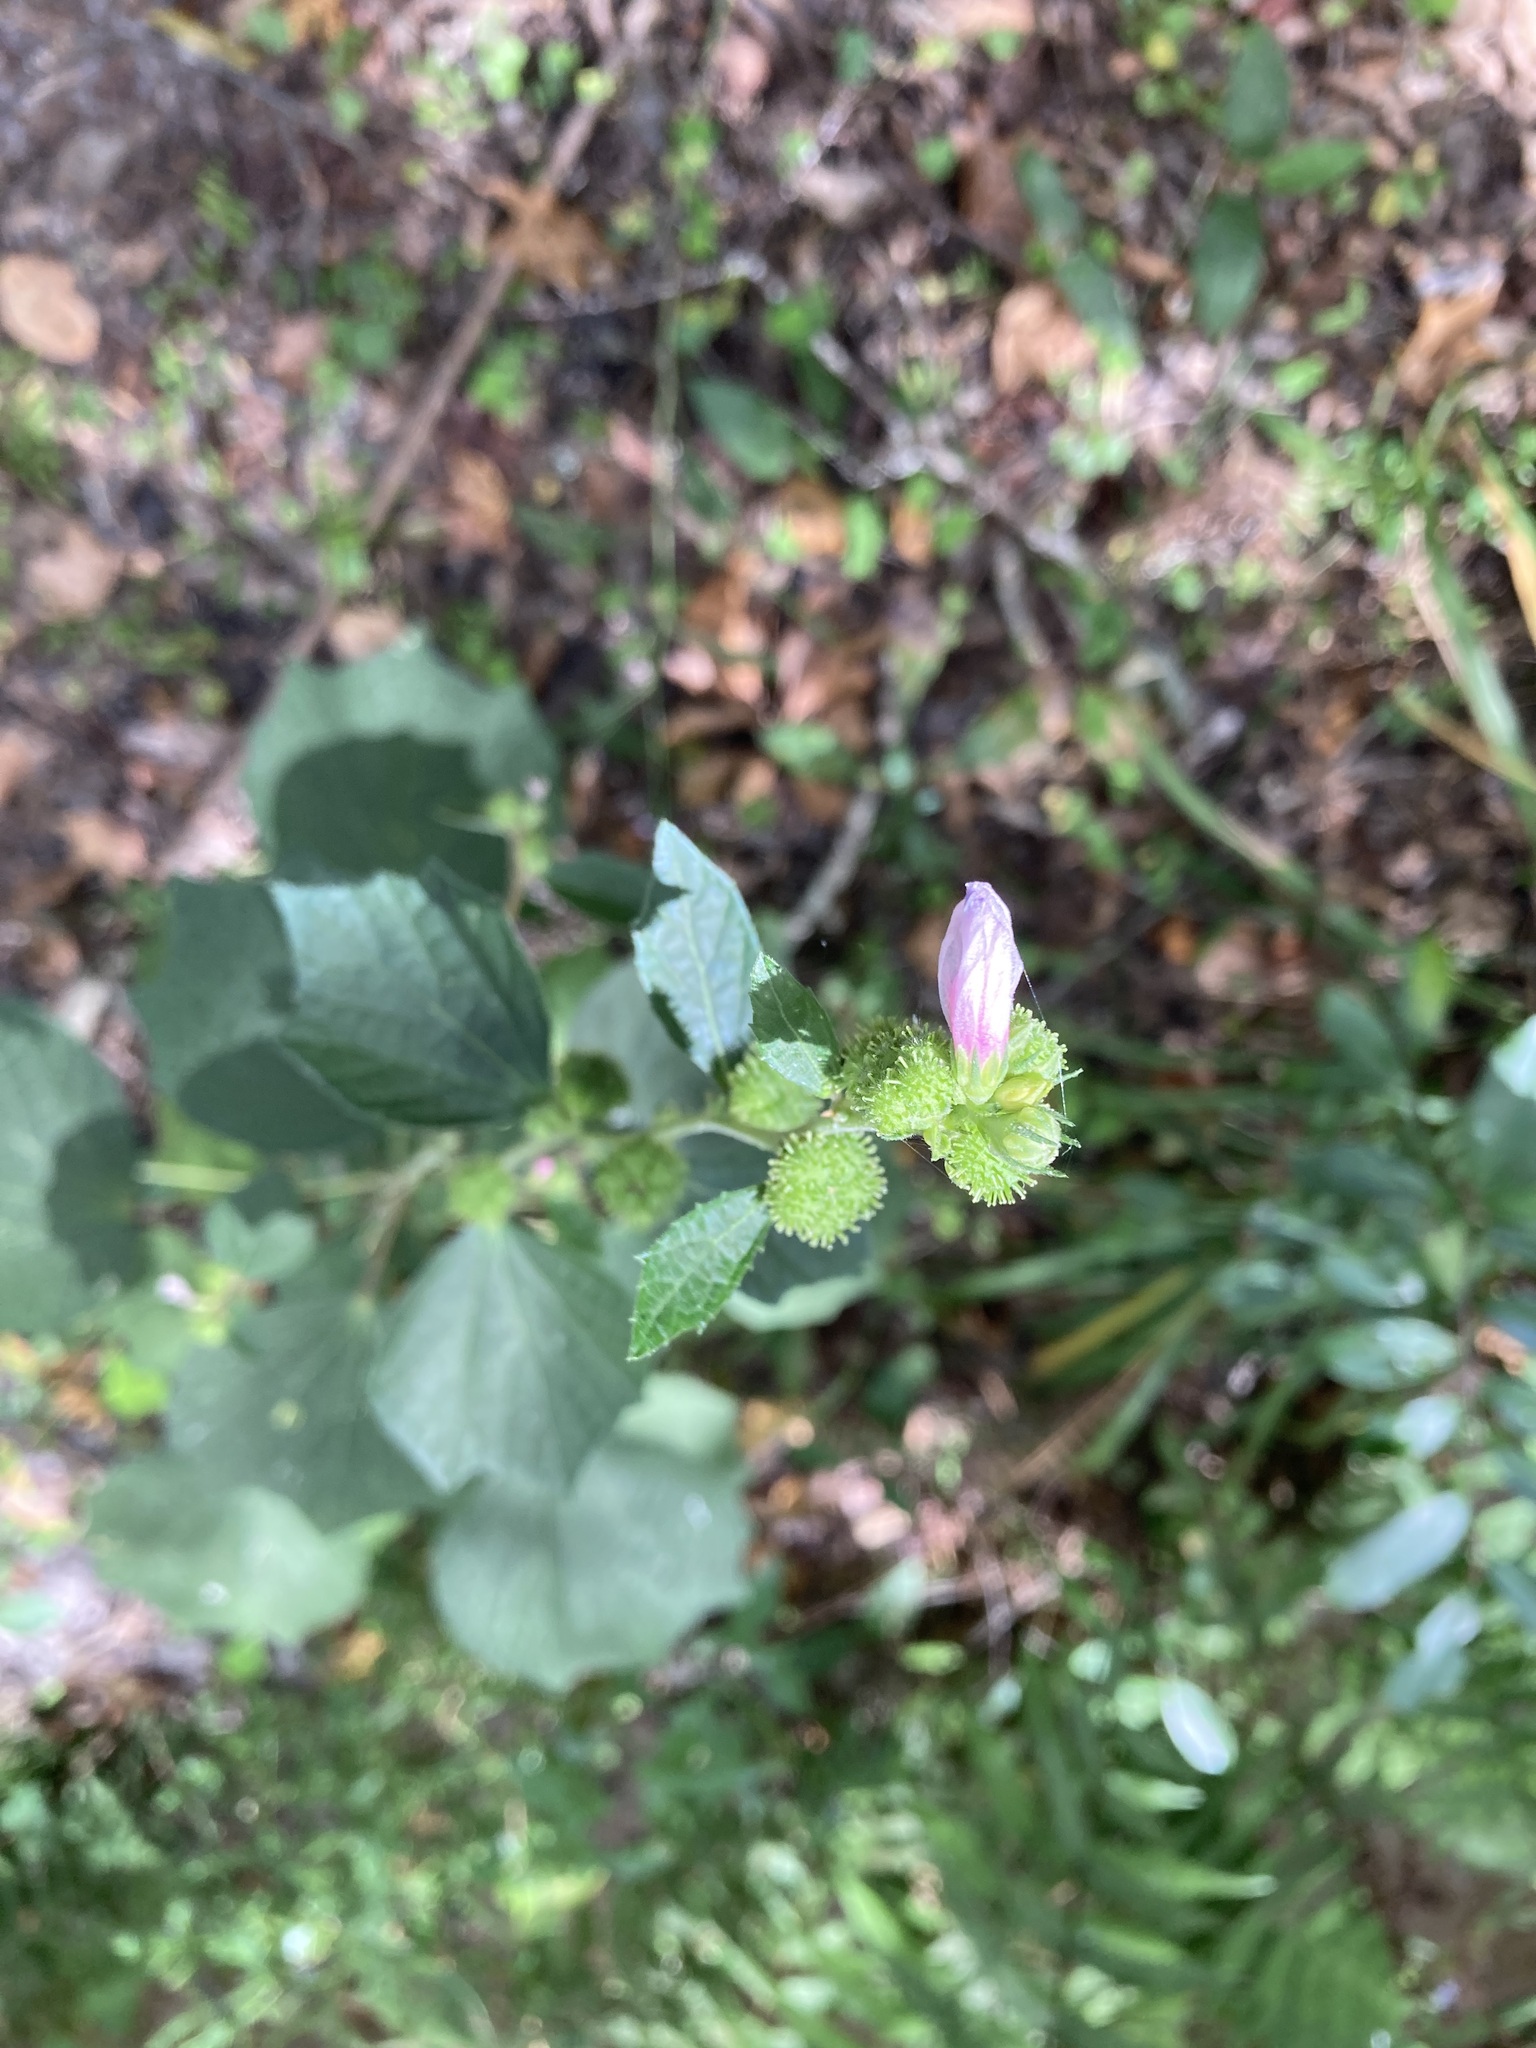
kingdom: Plantae
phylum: Tracheophyta
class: Magnoliopsida
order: Malvales
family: Malvaceae
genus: Urena
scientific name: Urena lobata
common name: Caesarweed
